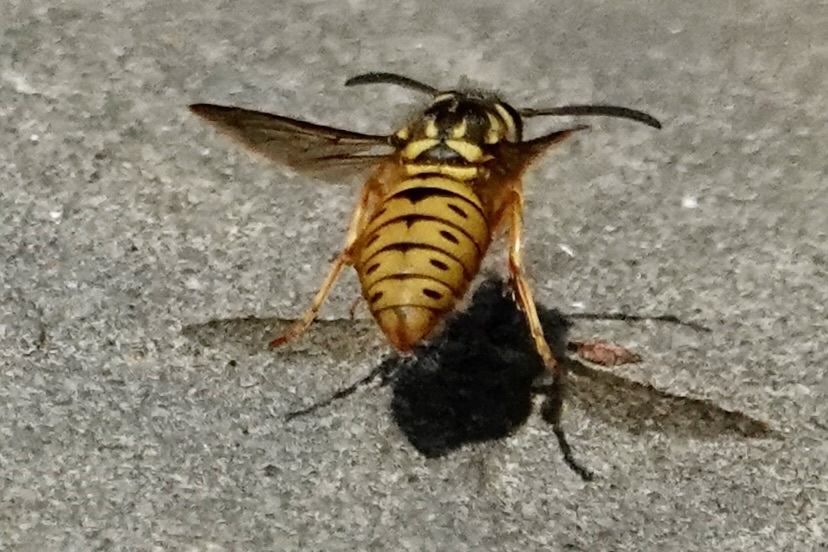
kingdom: Animalia
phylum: Arthropoda
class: Insecta
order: Hymenoptera
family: Vespidae
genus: Vespula
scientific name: Vespula maculifrons
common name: Eastern yellowjacket
